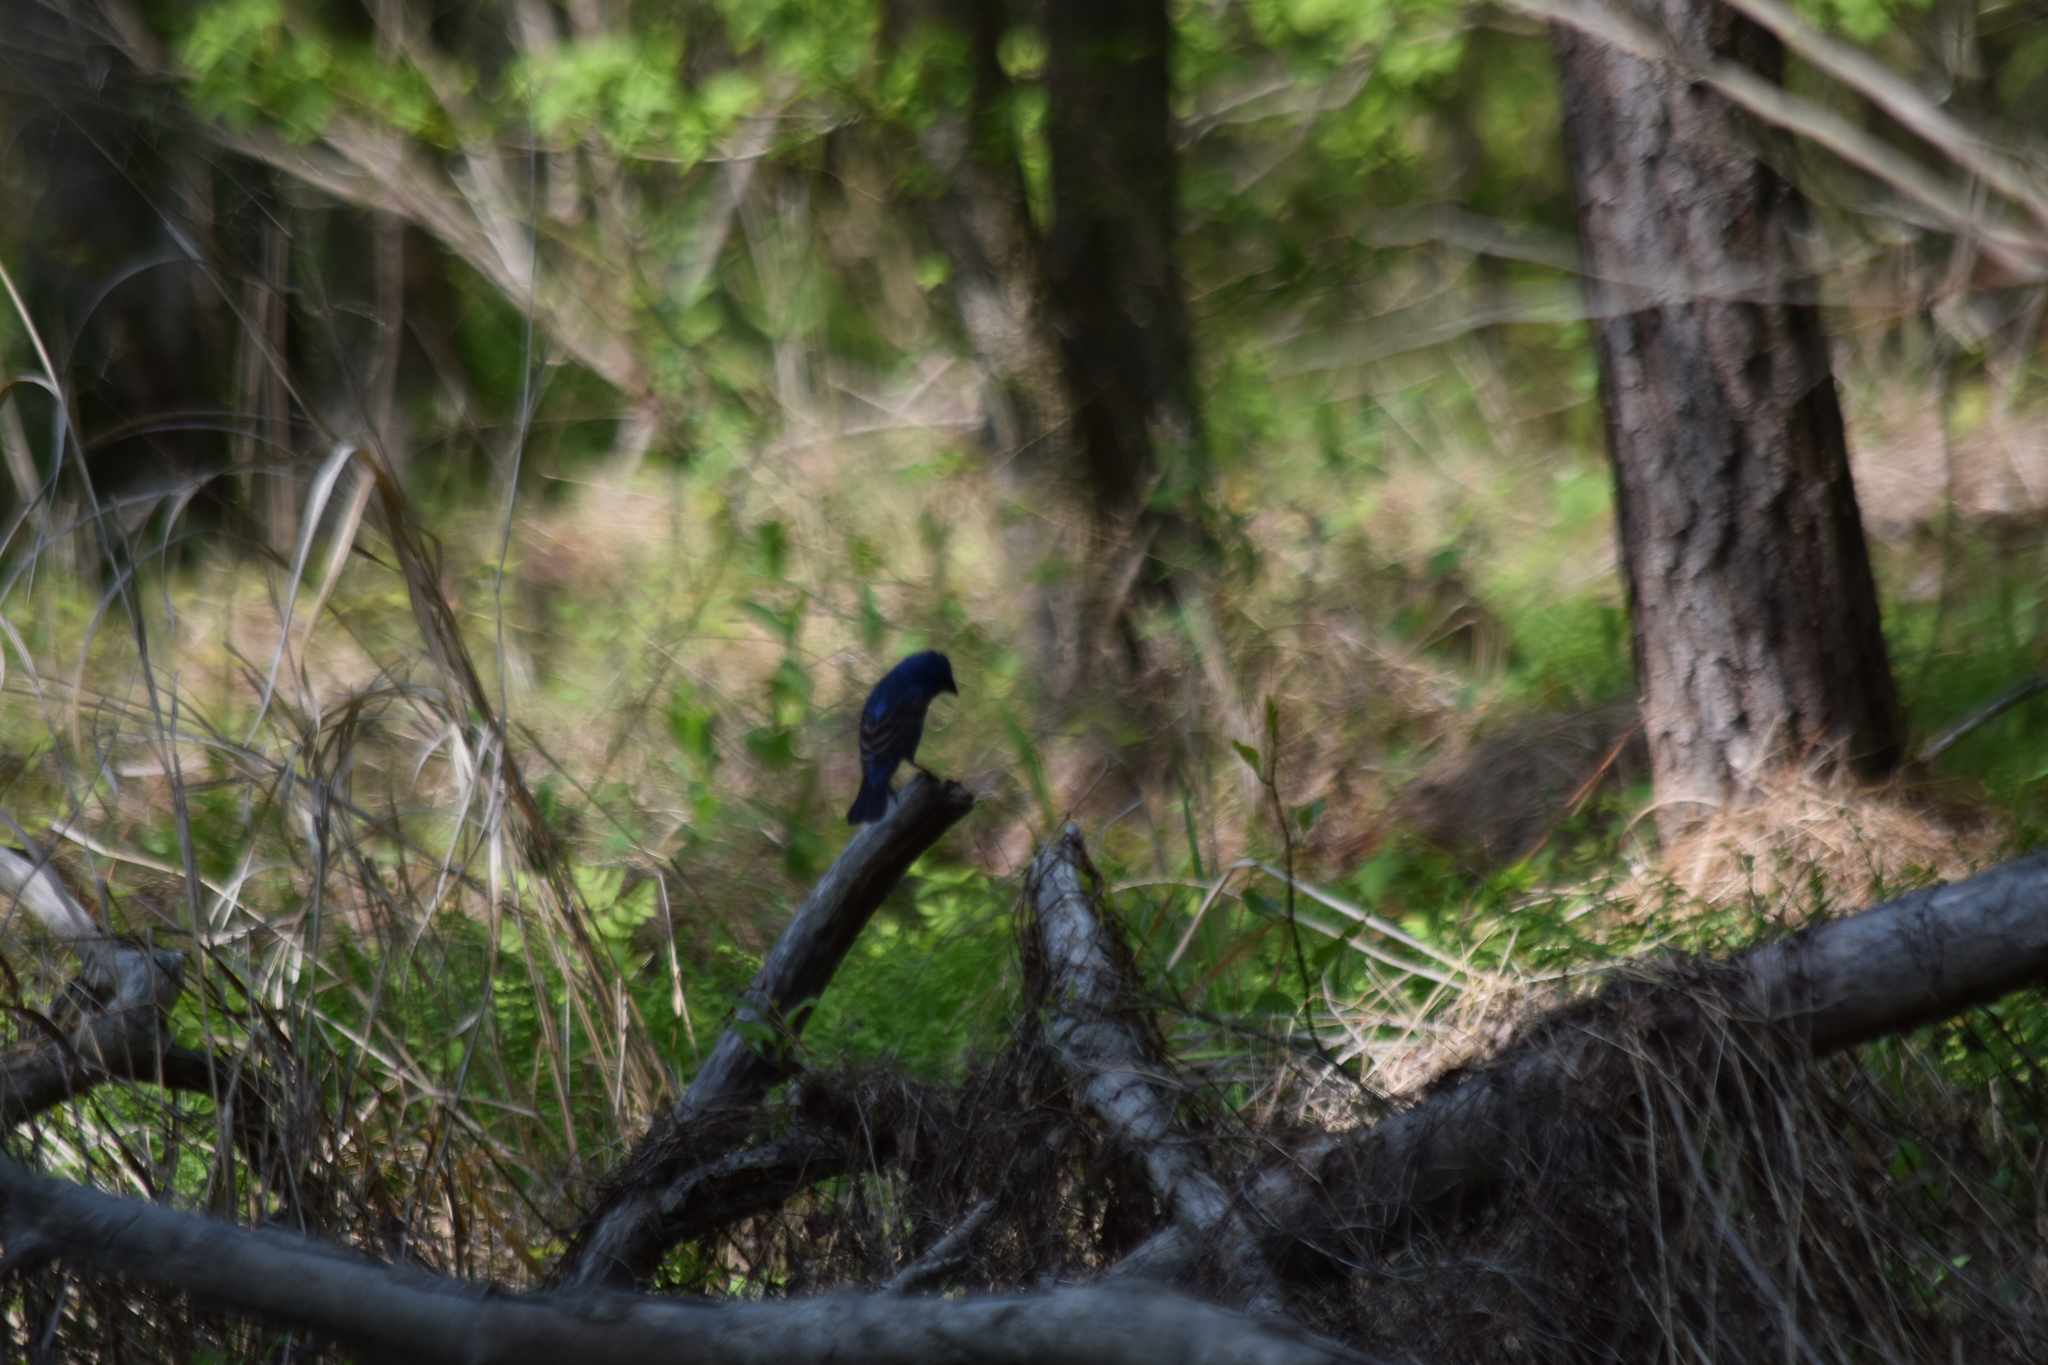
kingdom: Animalia
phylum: Chordata
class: Aves
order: Passeriformes
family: Cardinalidae
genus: Passerina
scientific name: Passerina caerulea
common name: Blue grosbeak
